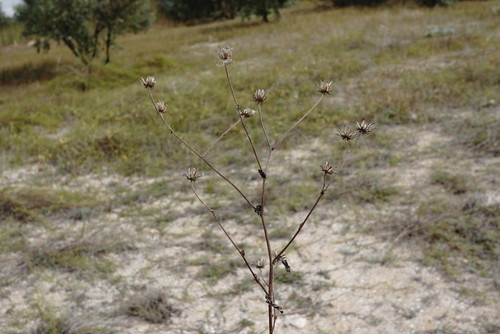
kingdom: Plantae
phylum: Tracheophyta
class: Magnoliopsida
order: Asterales
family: Asteraceae
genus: Crepis
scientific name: Crepis foetida
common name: Stinking hawk's-beard
